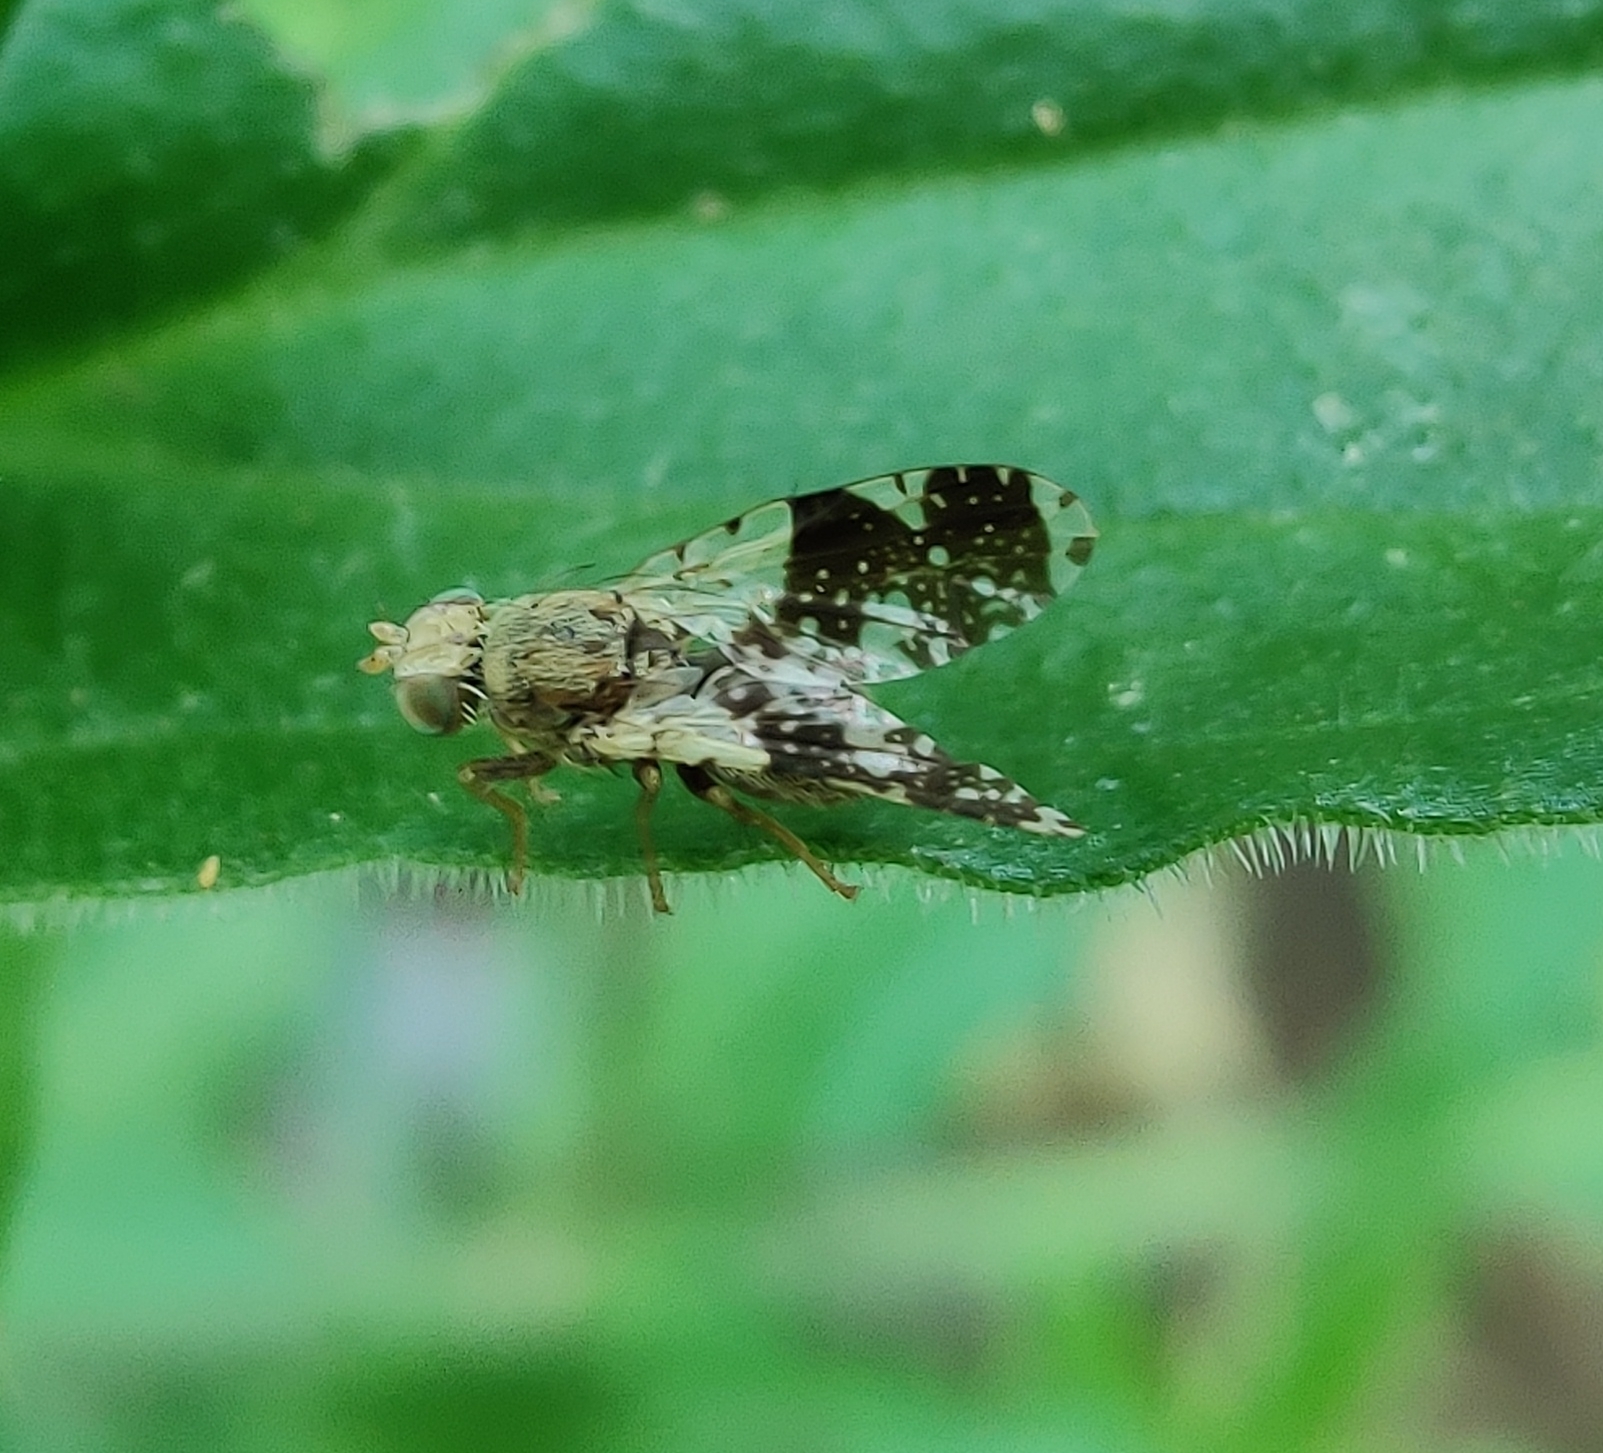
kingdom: Animalia
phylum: Arthropoda
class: Insecta
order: Diptera
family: Tephritidae
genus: Tephritis
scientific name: Tephritis formosa
